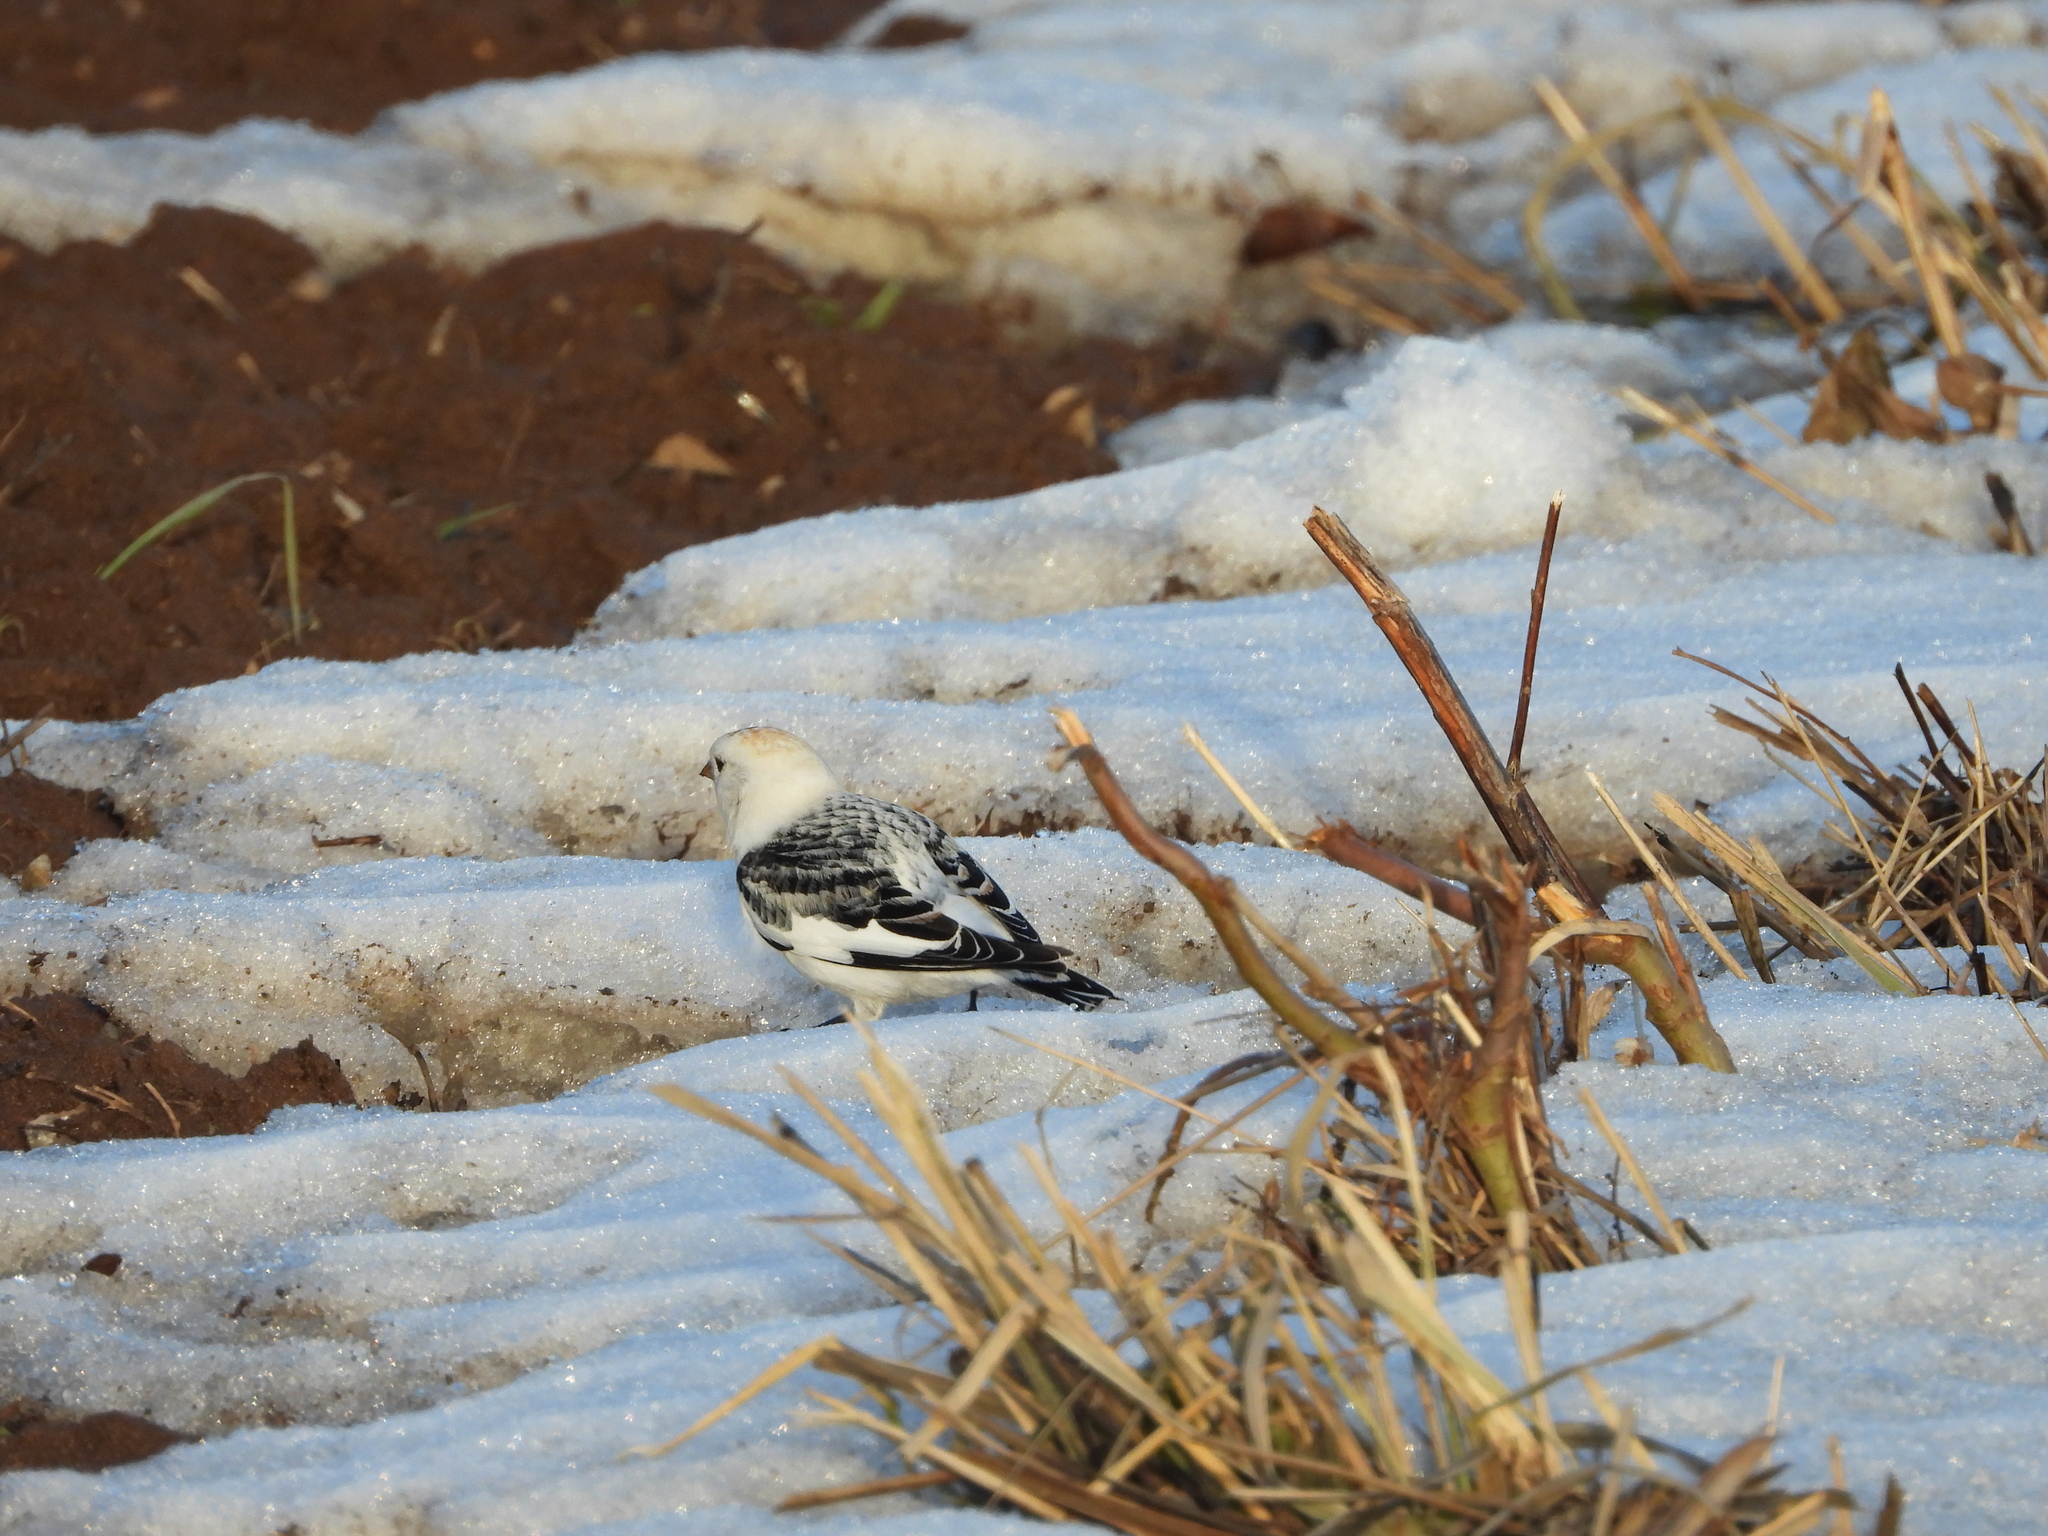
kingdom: Animalia
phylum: Chordata
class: Aves
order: Passeriformes
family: Calcariidae
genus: Plectrophenax
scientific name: Plectrophenax nivalis
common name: Snow bunting
